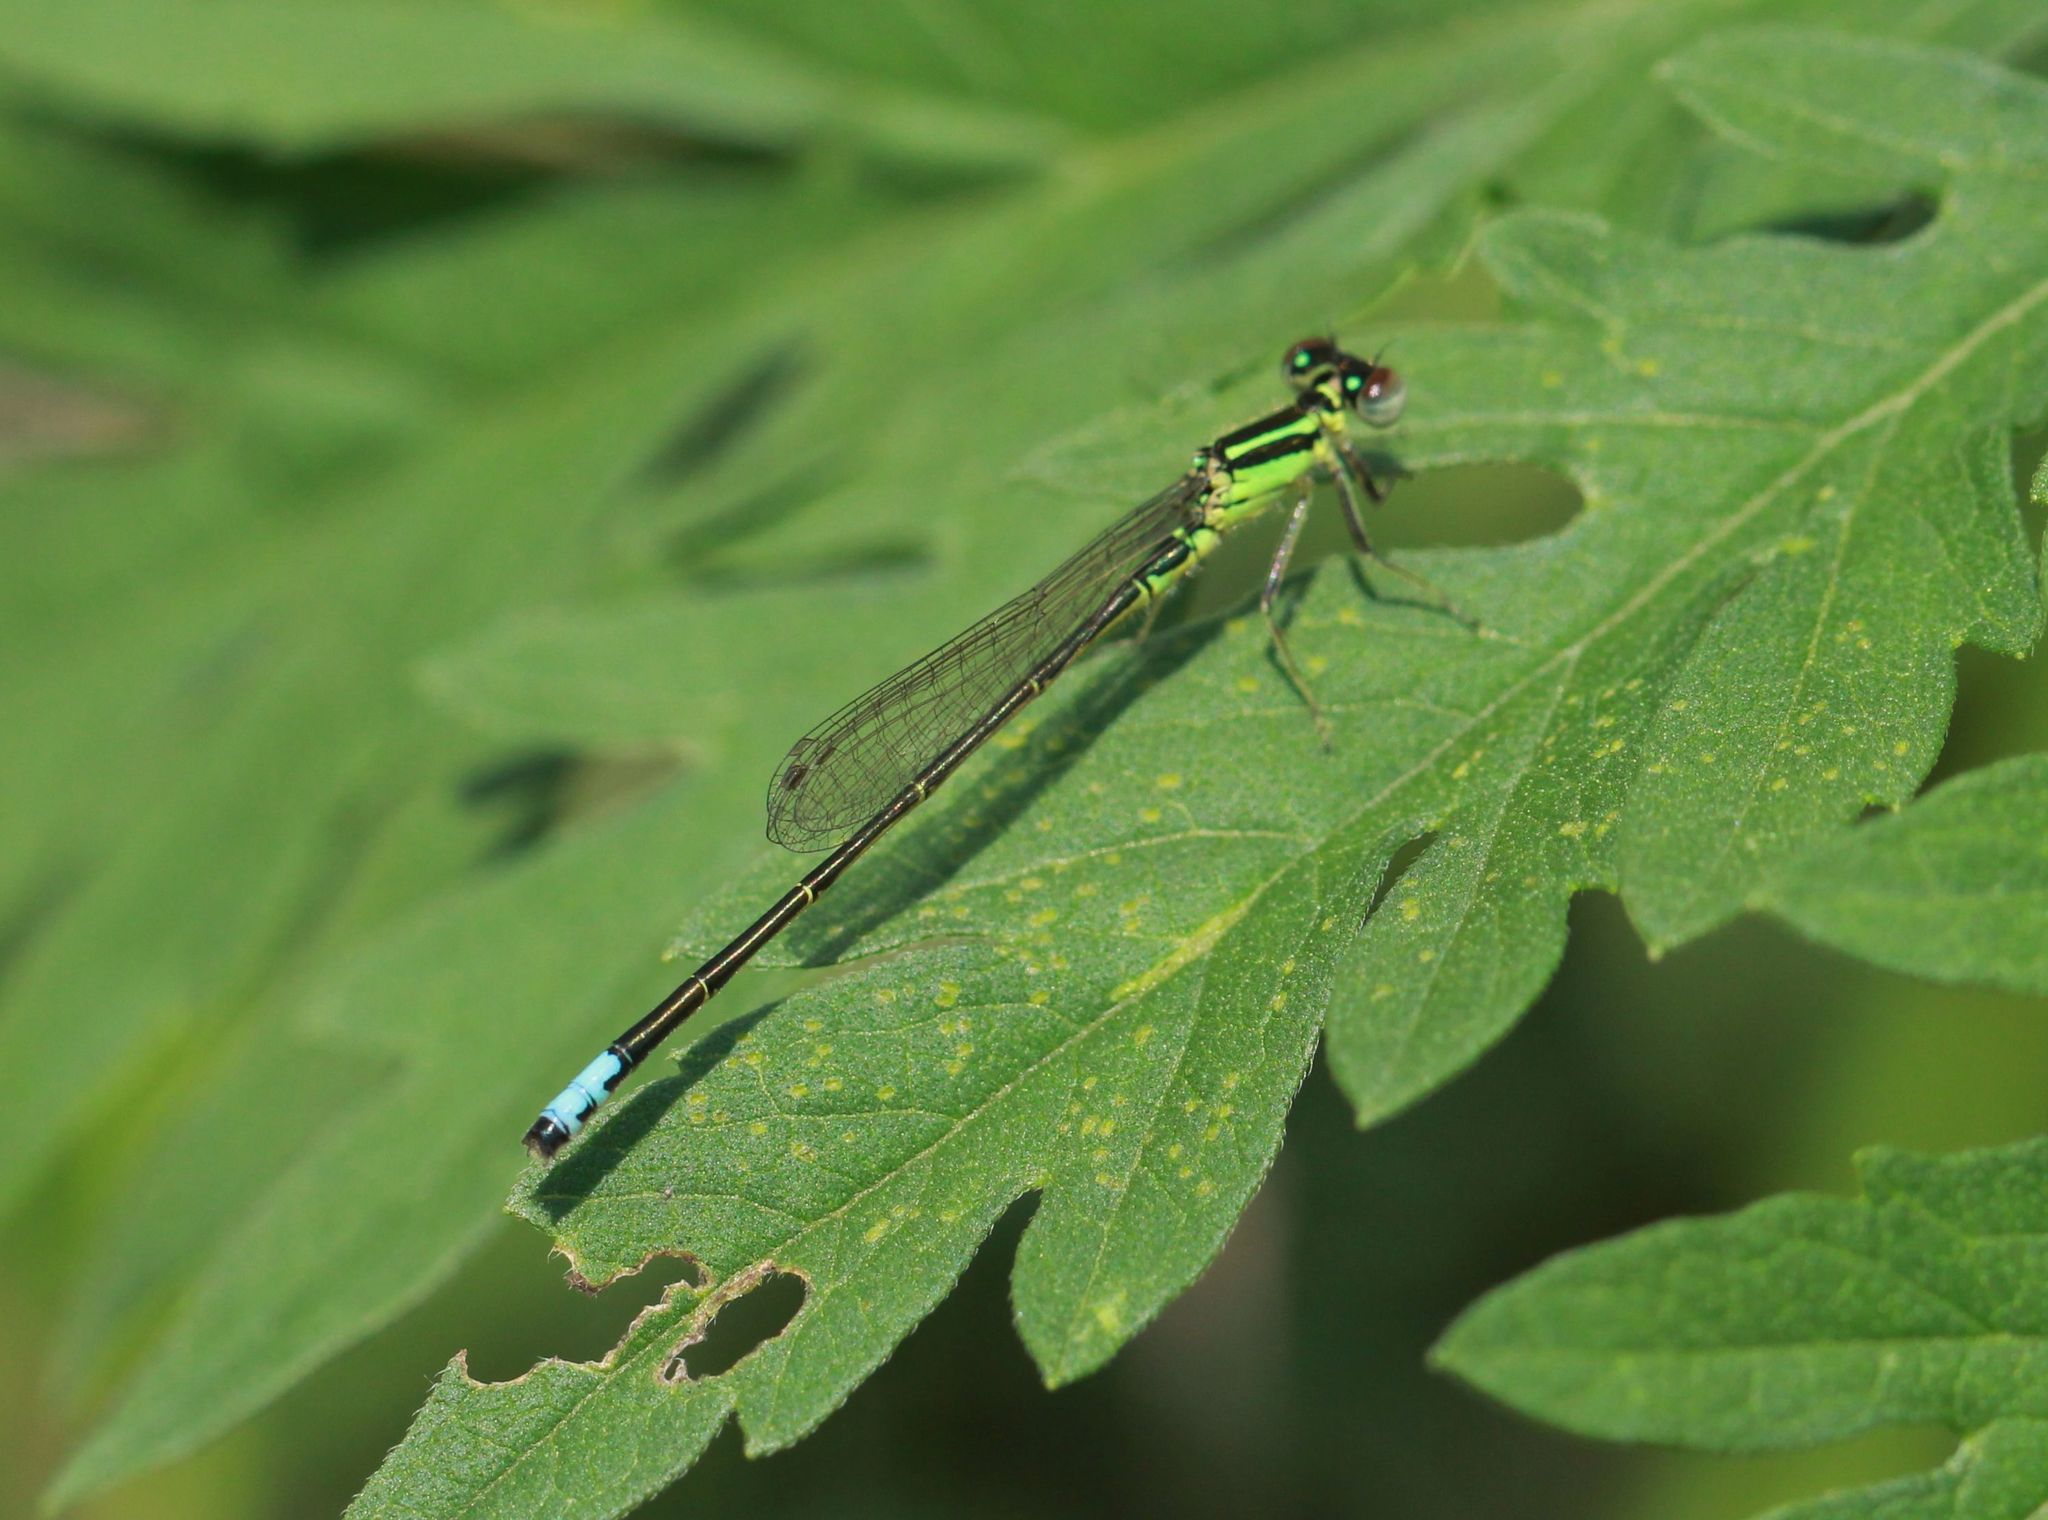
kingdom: Animalia
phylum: Arthropoda
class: Insecta
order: Odonata
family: Coenagrionidae
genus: Ischnura
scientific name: Ischnura verticalis
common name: Eastern forktail
